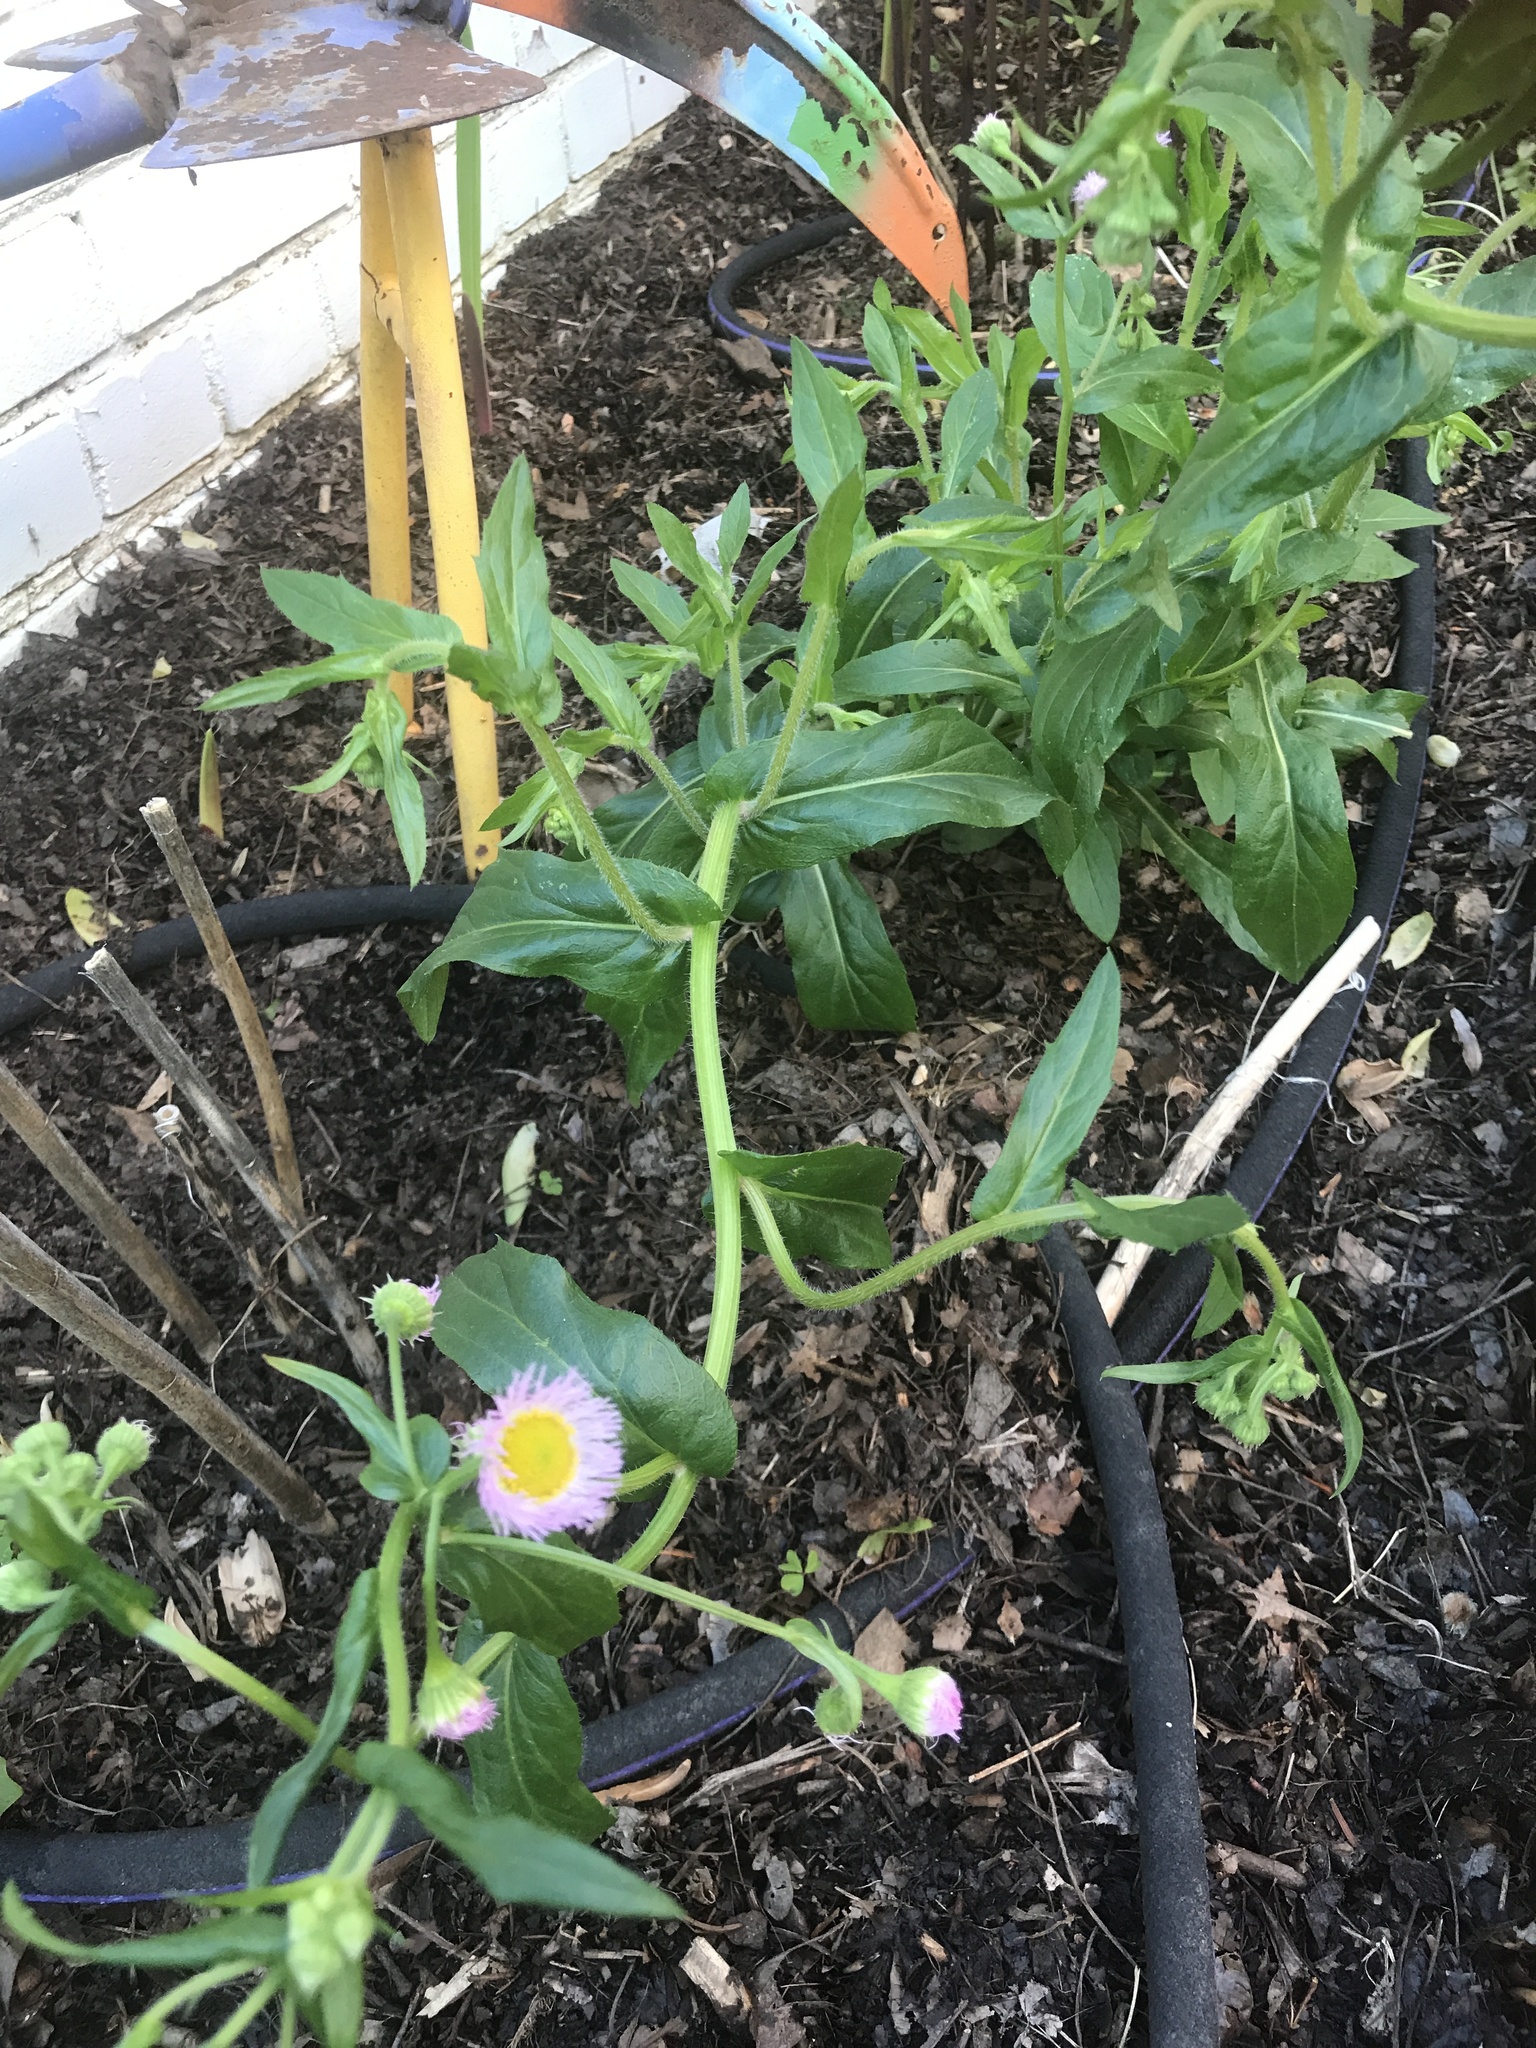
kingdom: Plantae
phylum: Tracheophyta
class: Magnoliopsida
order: Asterales
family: Asteraceae
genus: Erigeron
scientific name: Erigeron philadelphicus
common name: Robin's-plantain
